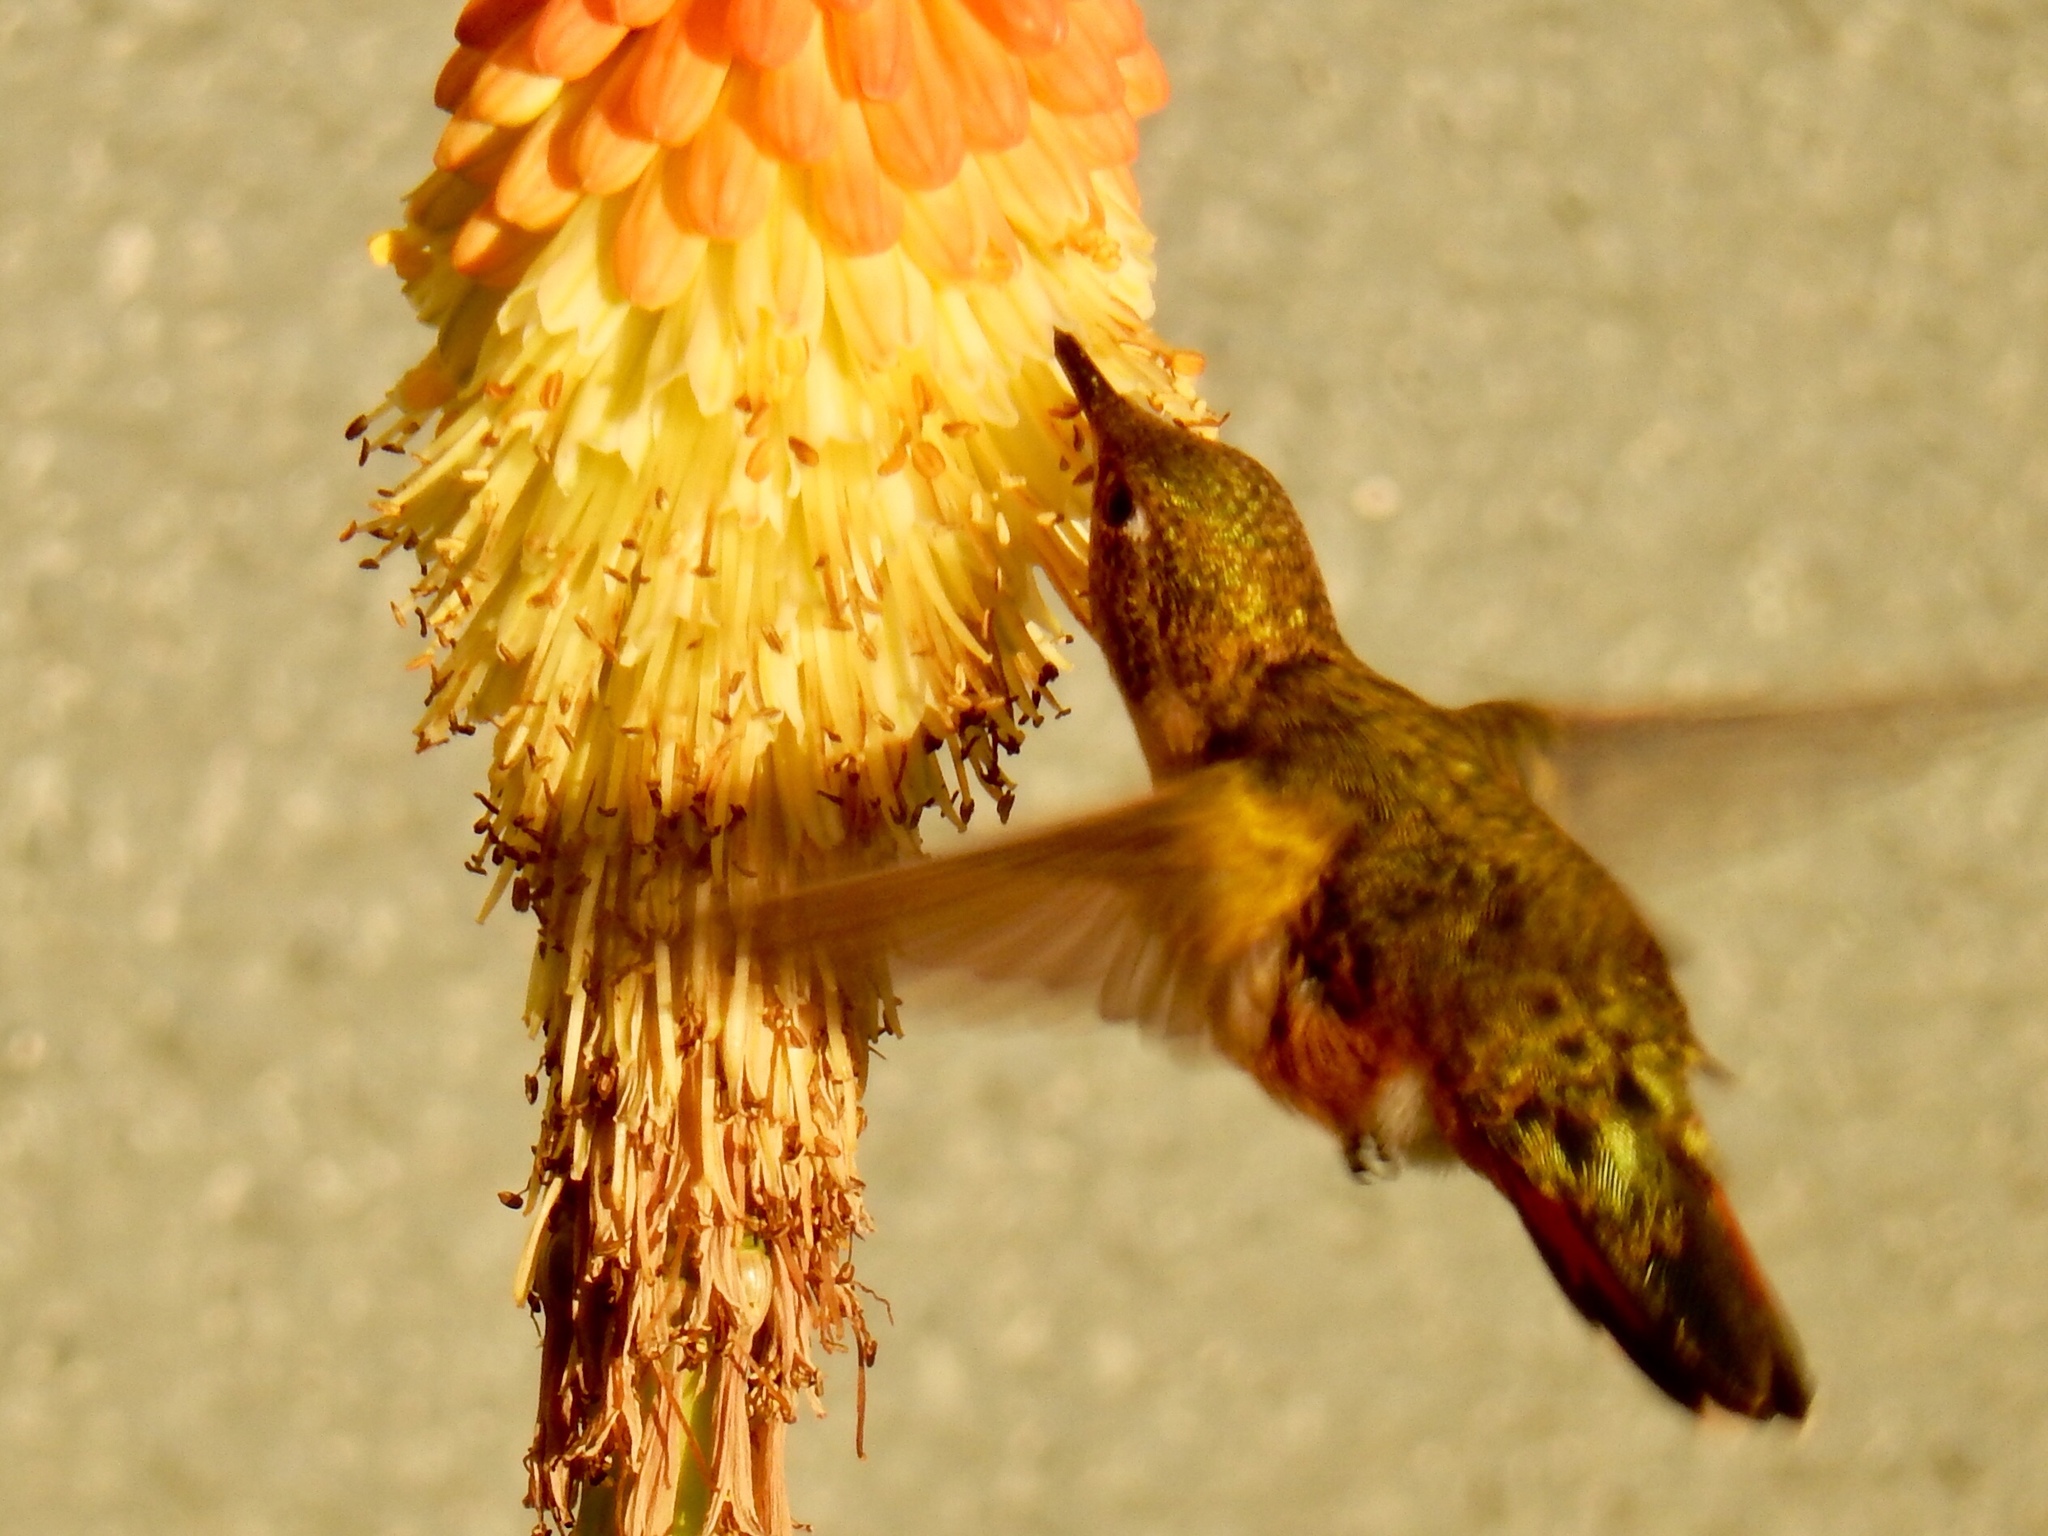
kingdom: Animalia
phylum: Chordata
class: Aves
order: Apodiformes
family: Trochilidae
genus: Selasphorus
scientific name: Selasphorus platycercus
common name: Broad-tailed hummingbird
